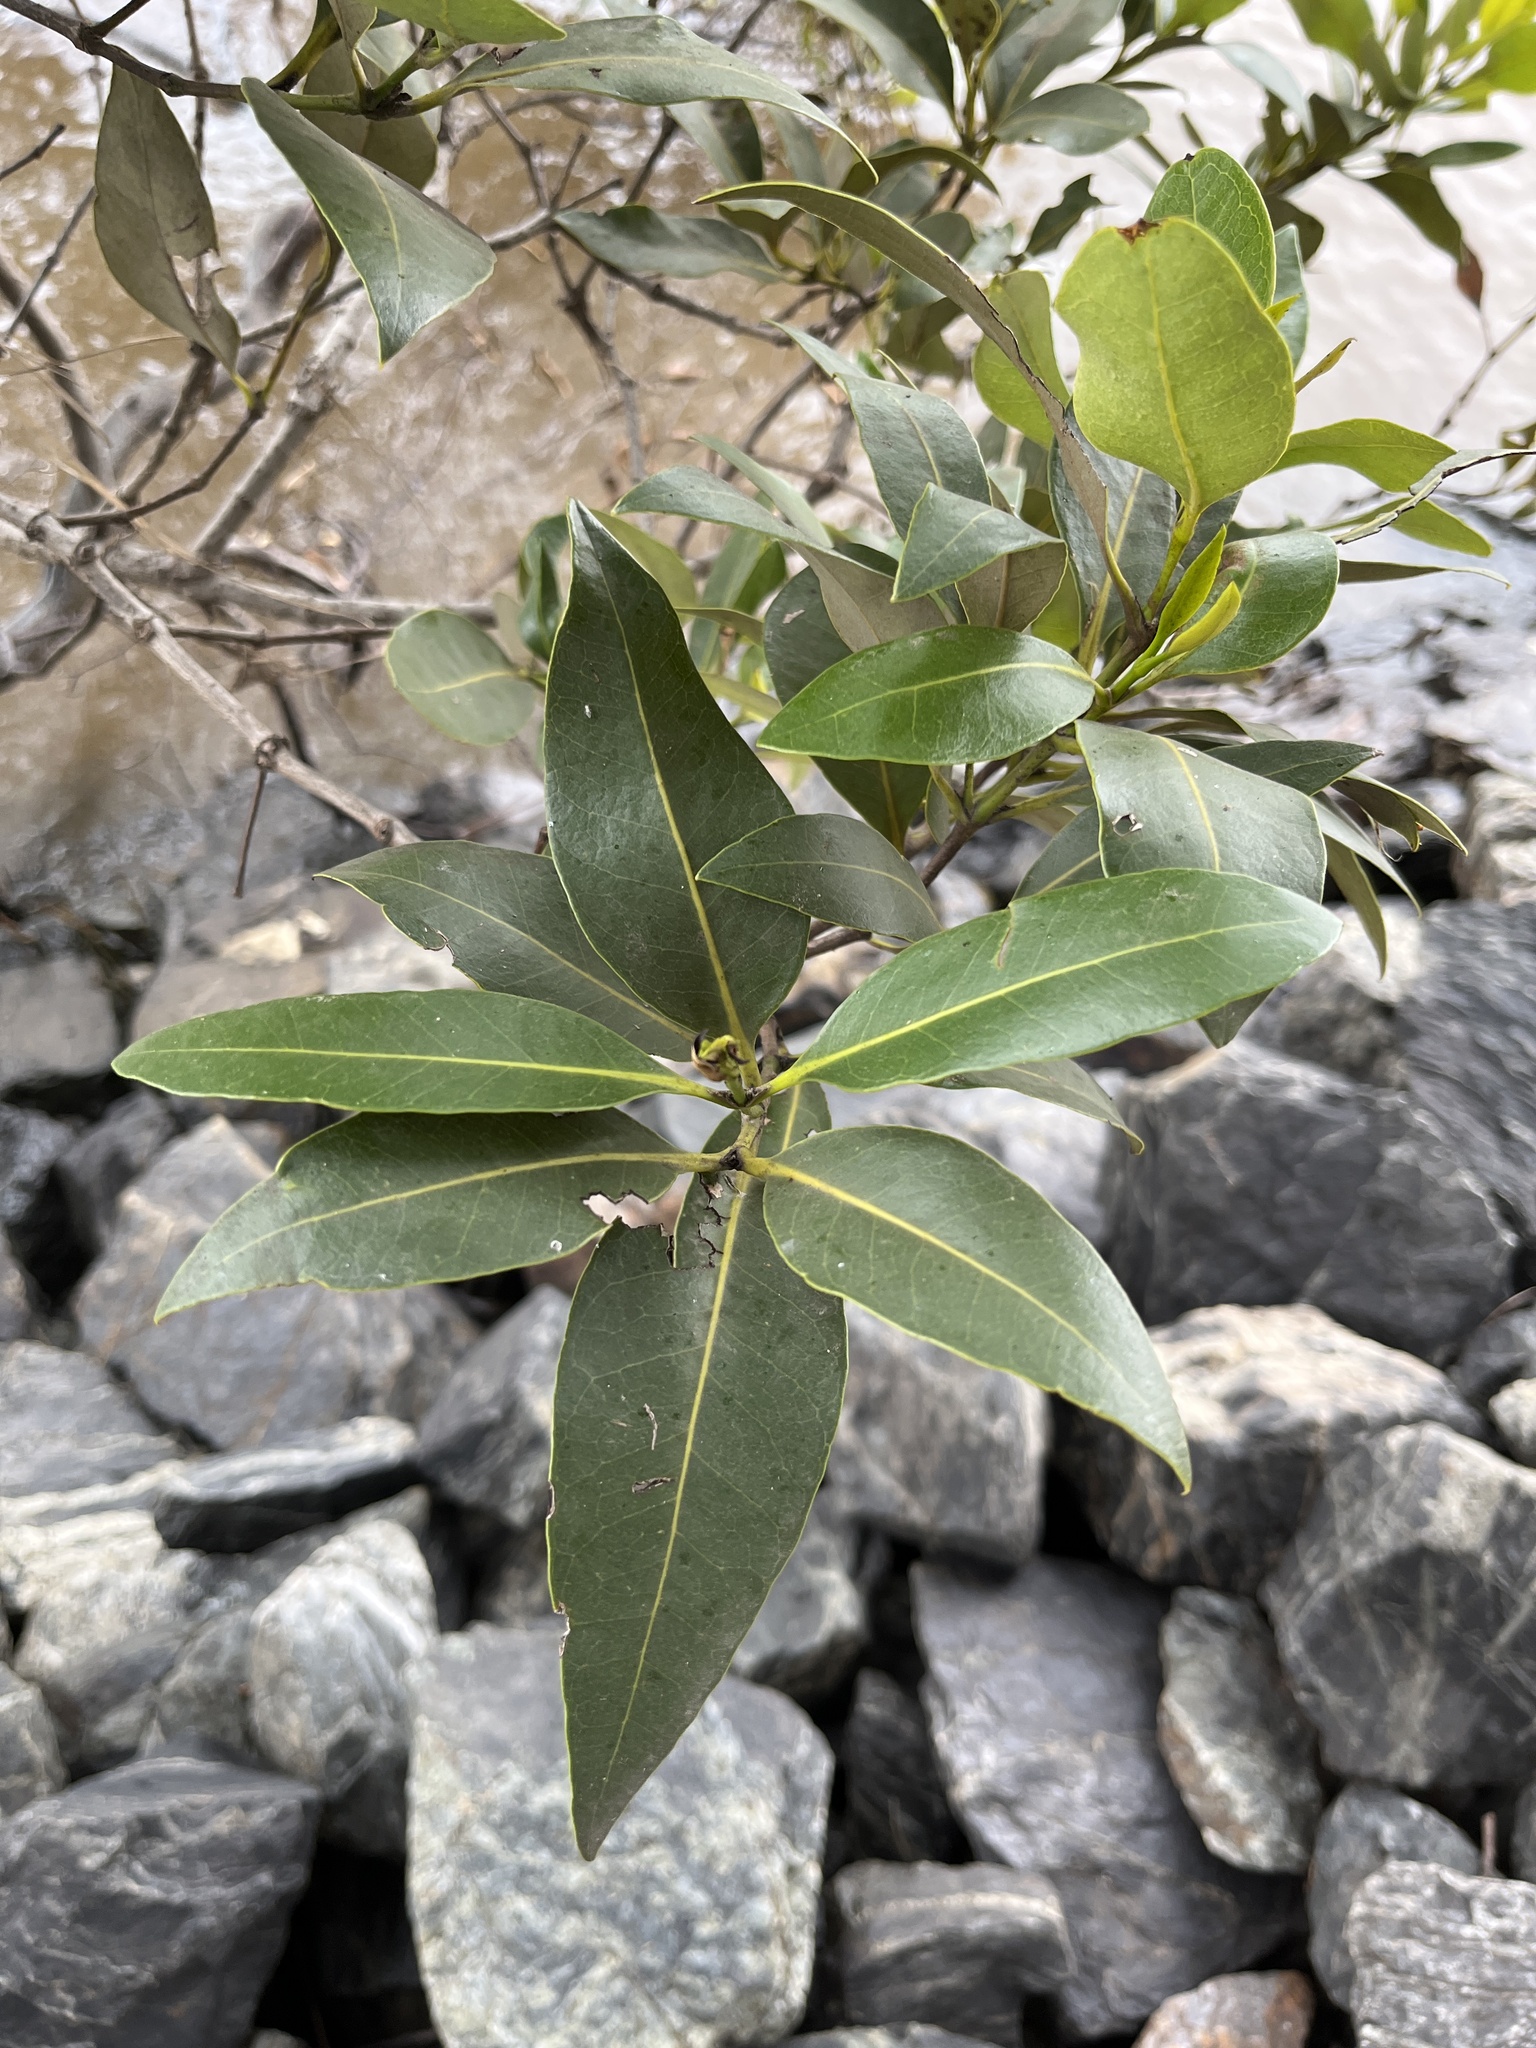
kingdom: Plantae
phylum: Tracheophyta
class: Magnoliopsida
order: Lamiales
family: Acanthaceae
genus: Avicennia
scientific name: Avicennia marina
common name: Gray mangrove
